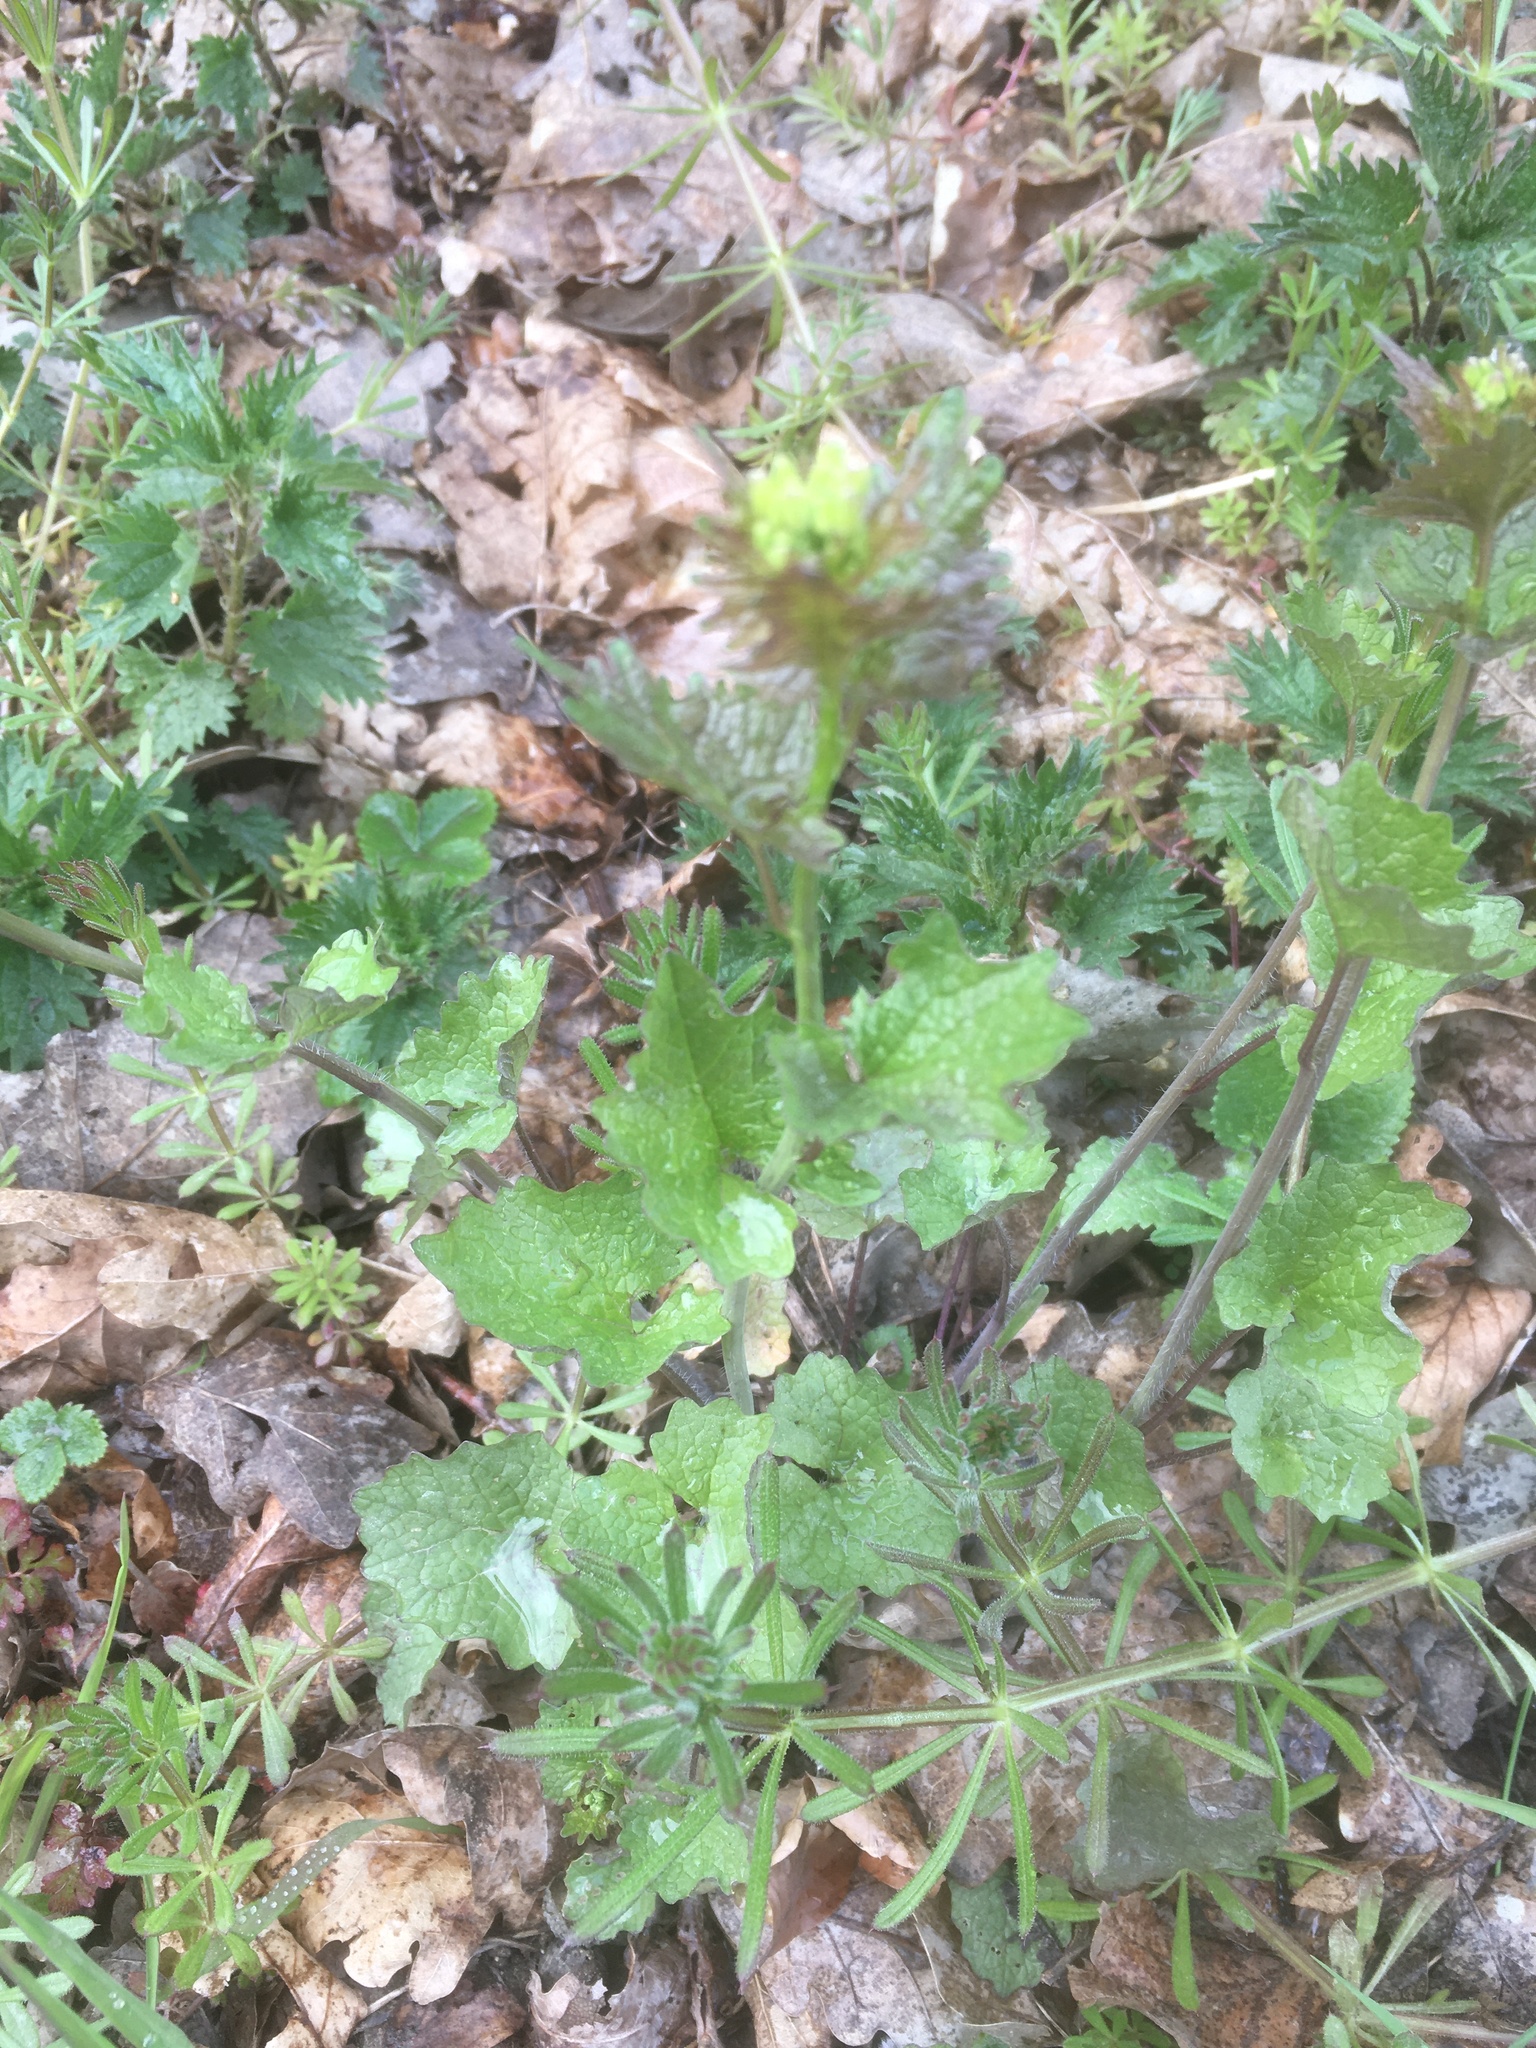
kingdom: Plantae
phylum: Tracheophyta
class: Magnoliopsida
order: Brassicales
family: Brassicaceae
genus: Alliaria
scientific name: Alliaria petiolata
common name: Garlic mustard
